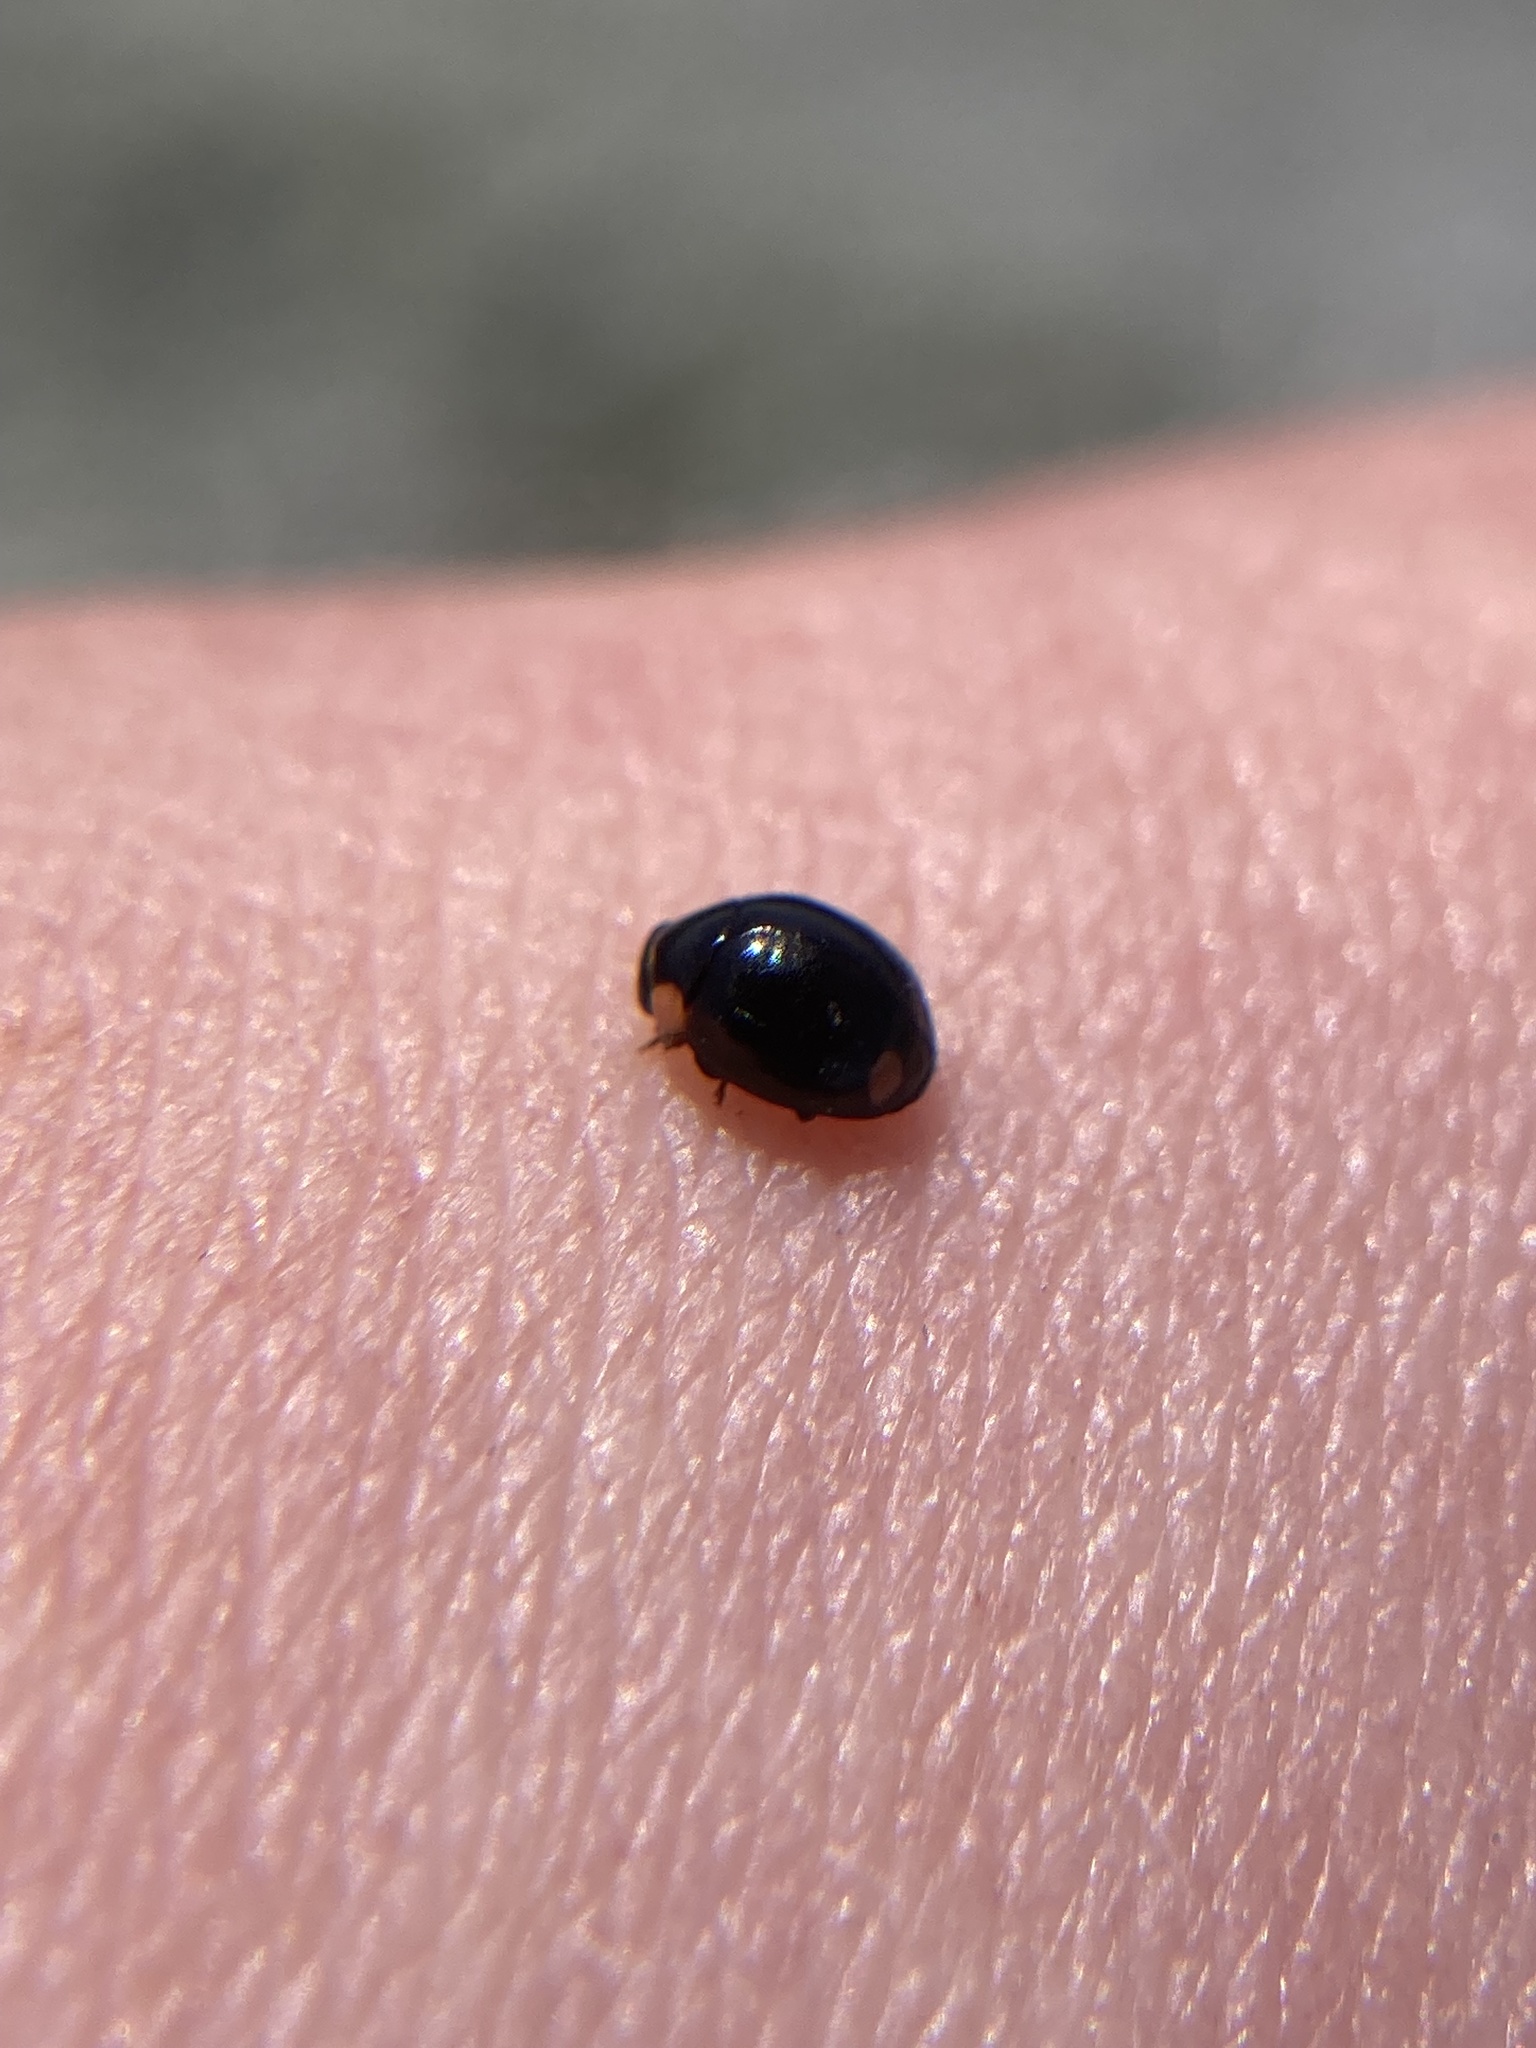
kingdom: Animalia
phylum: Arthropoda
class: Insecta
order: Coleoptera
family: Coccinellidae
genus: Hyperaspis
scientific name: Hyperaspis bigeminata
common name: Bigeminate sigil lady beetle
